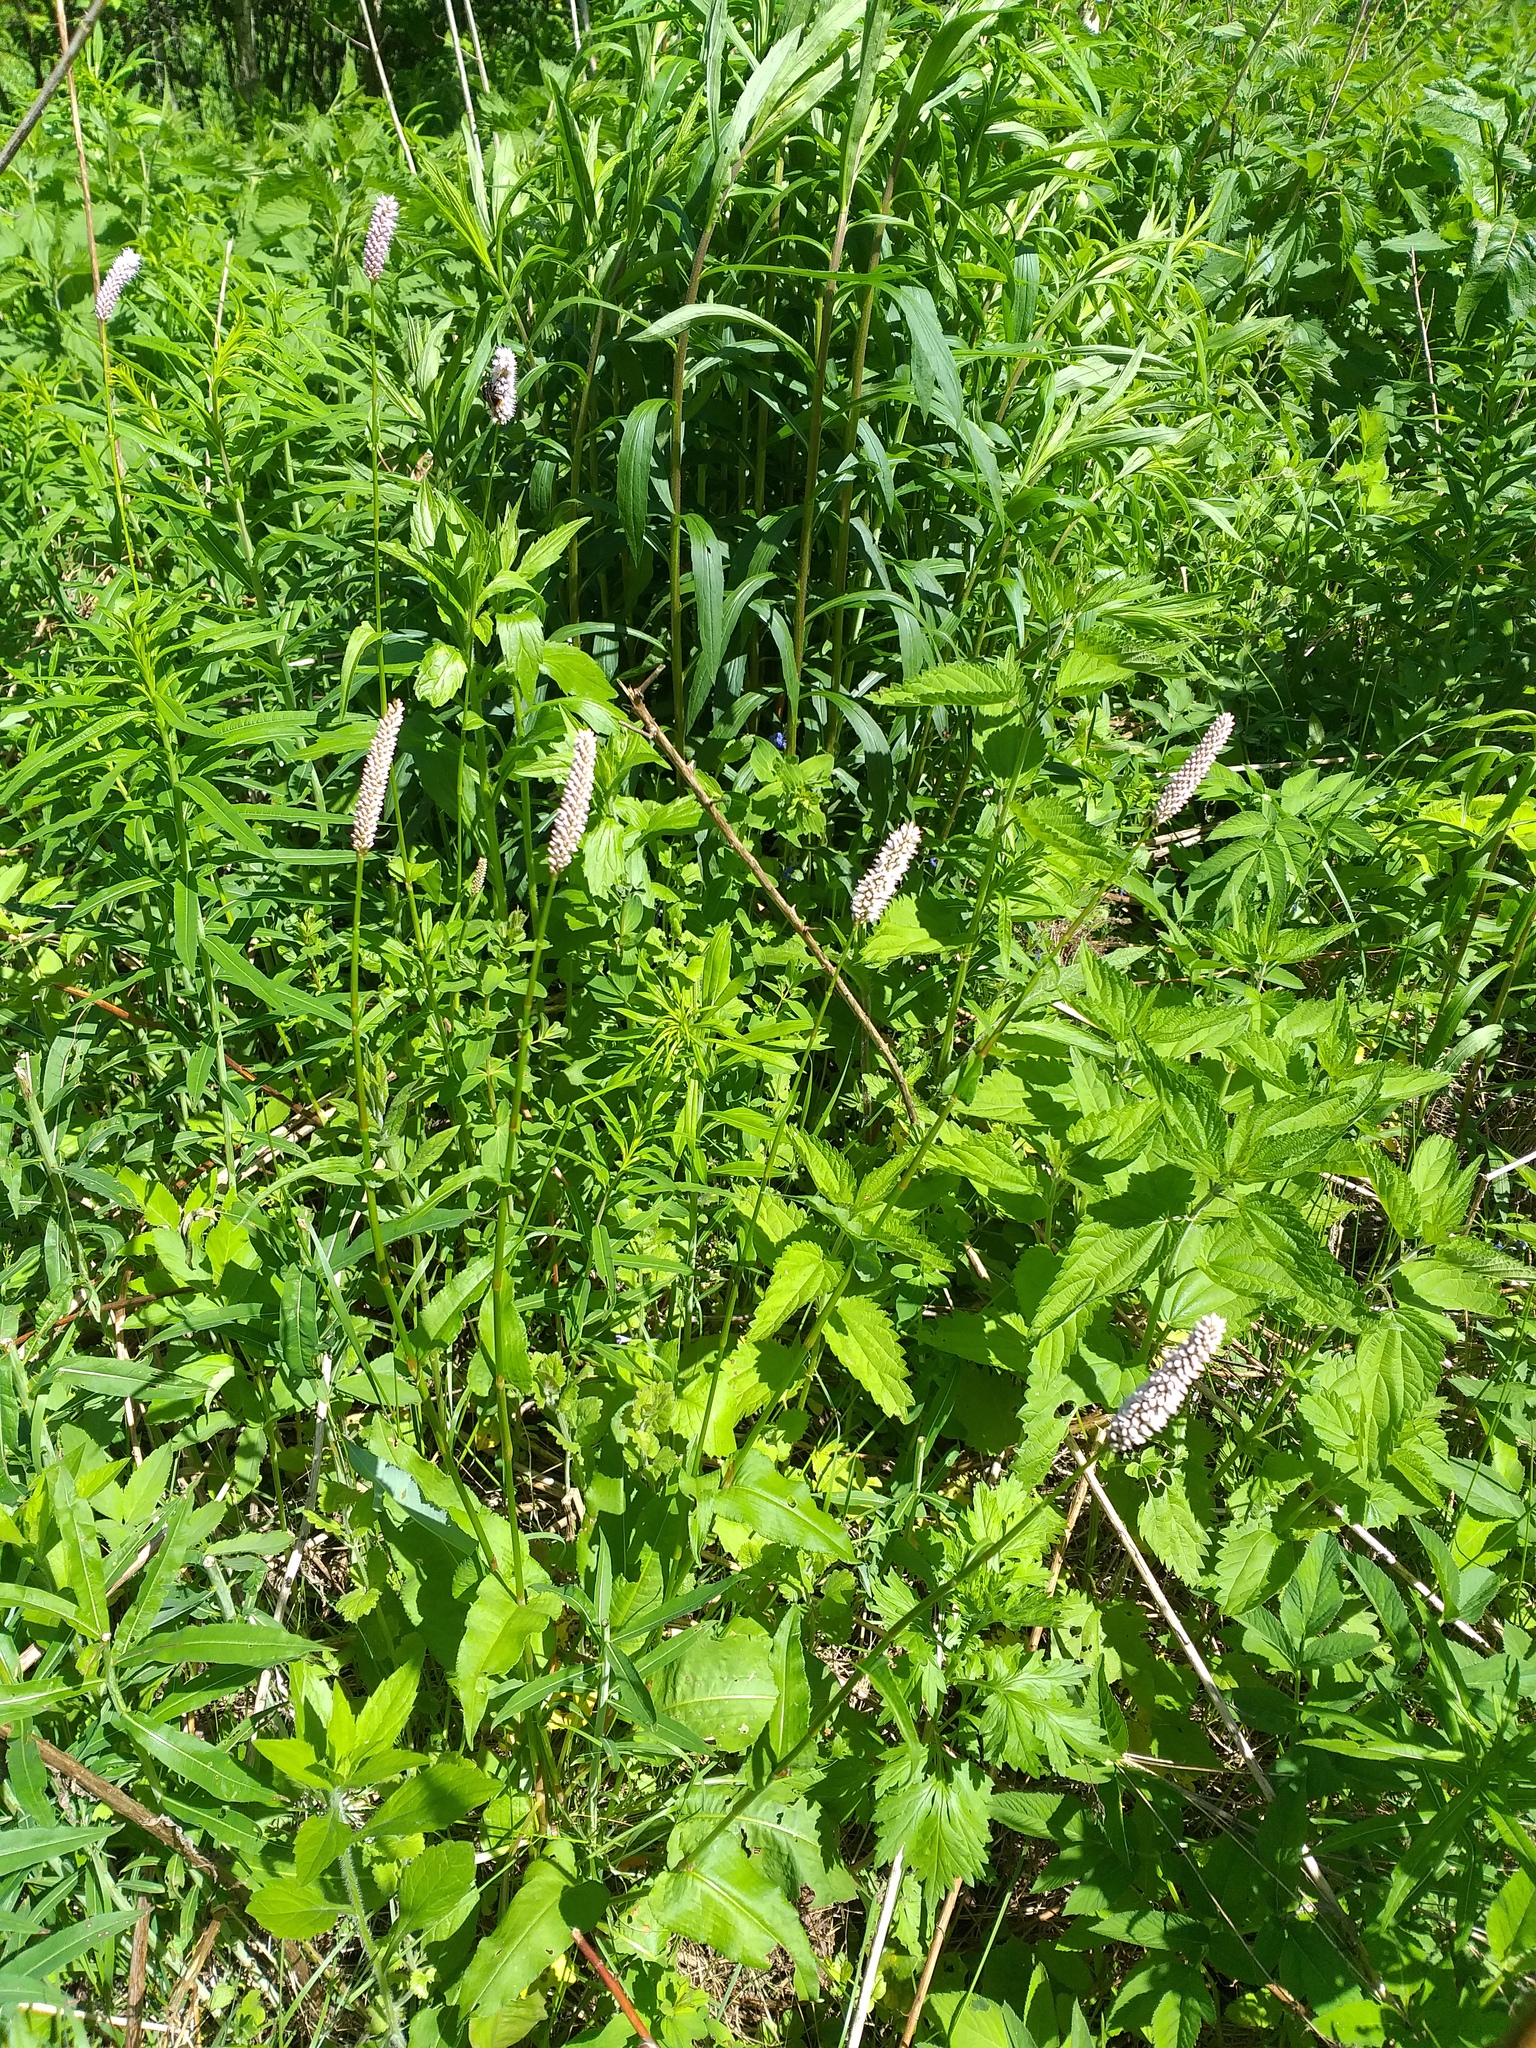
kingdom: Plantae
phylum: Tracheophyta
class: Magnoliopsida
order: Caryophyllales
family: Polygonaceae
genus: Bistorta
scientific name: Bistorta officinalis
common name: Common bistort
